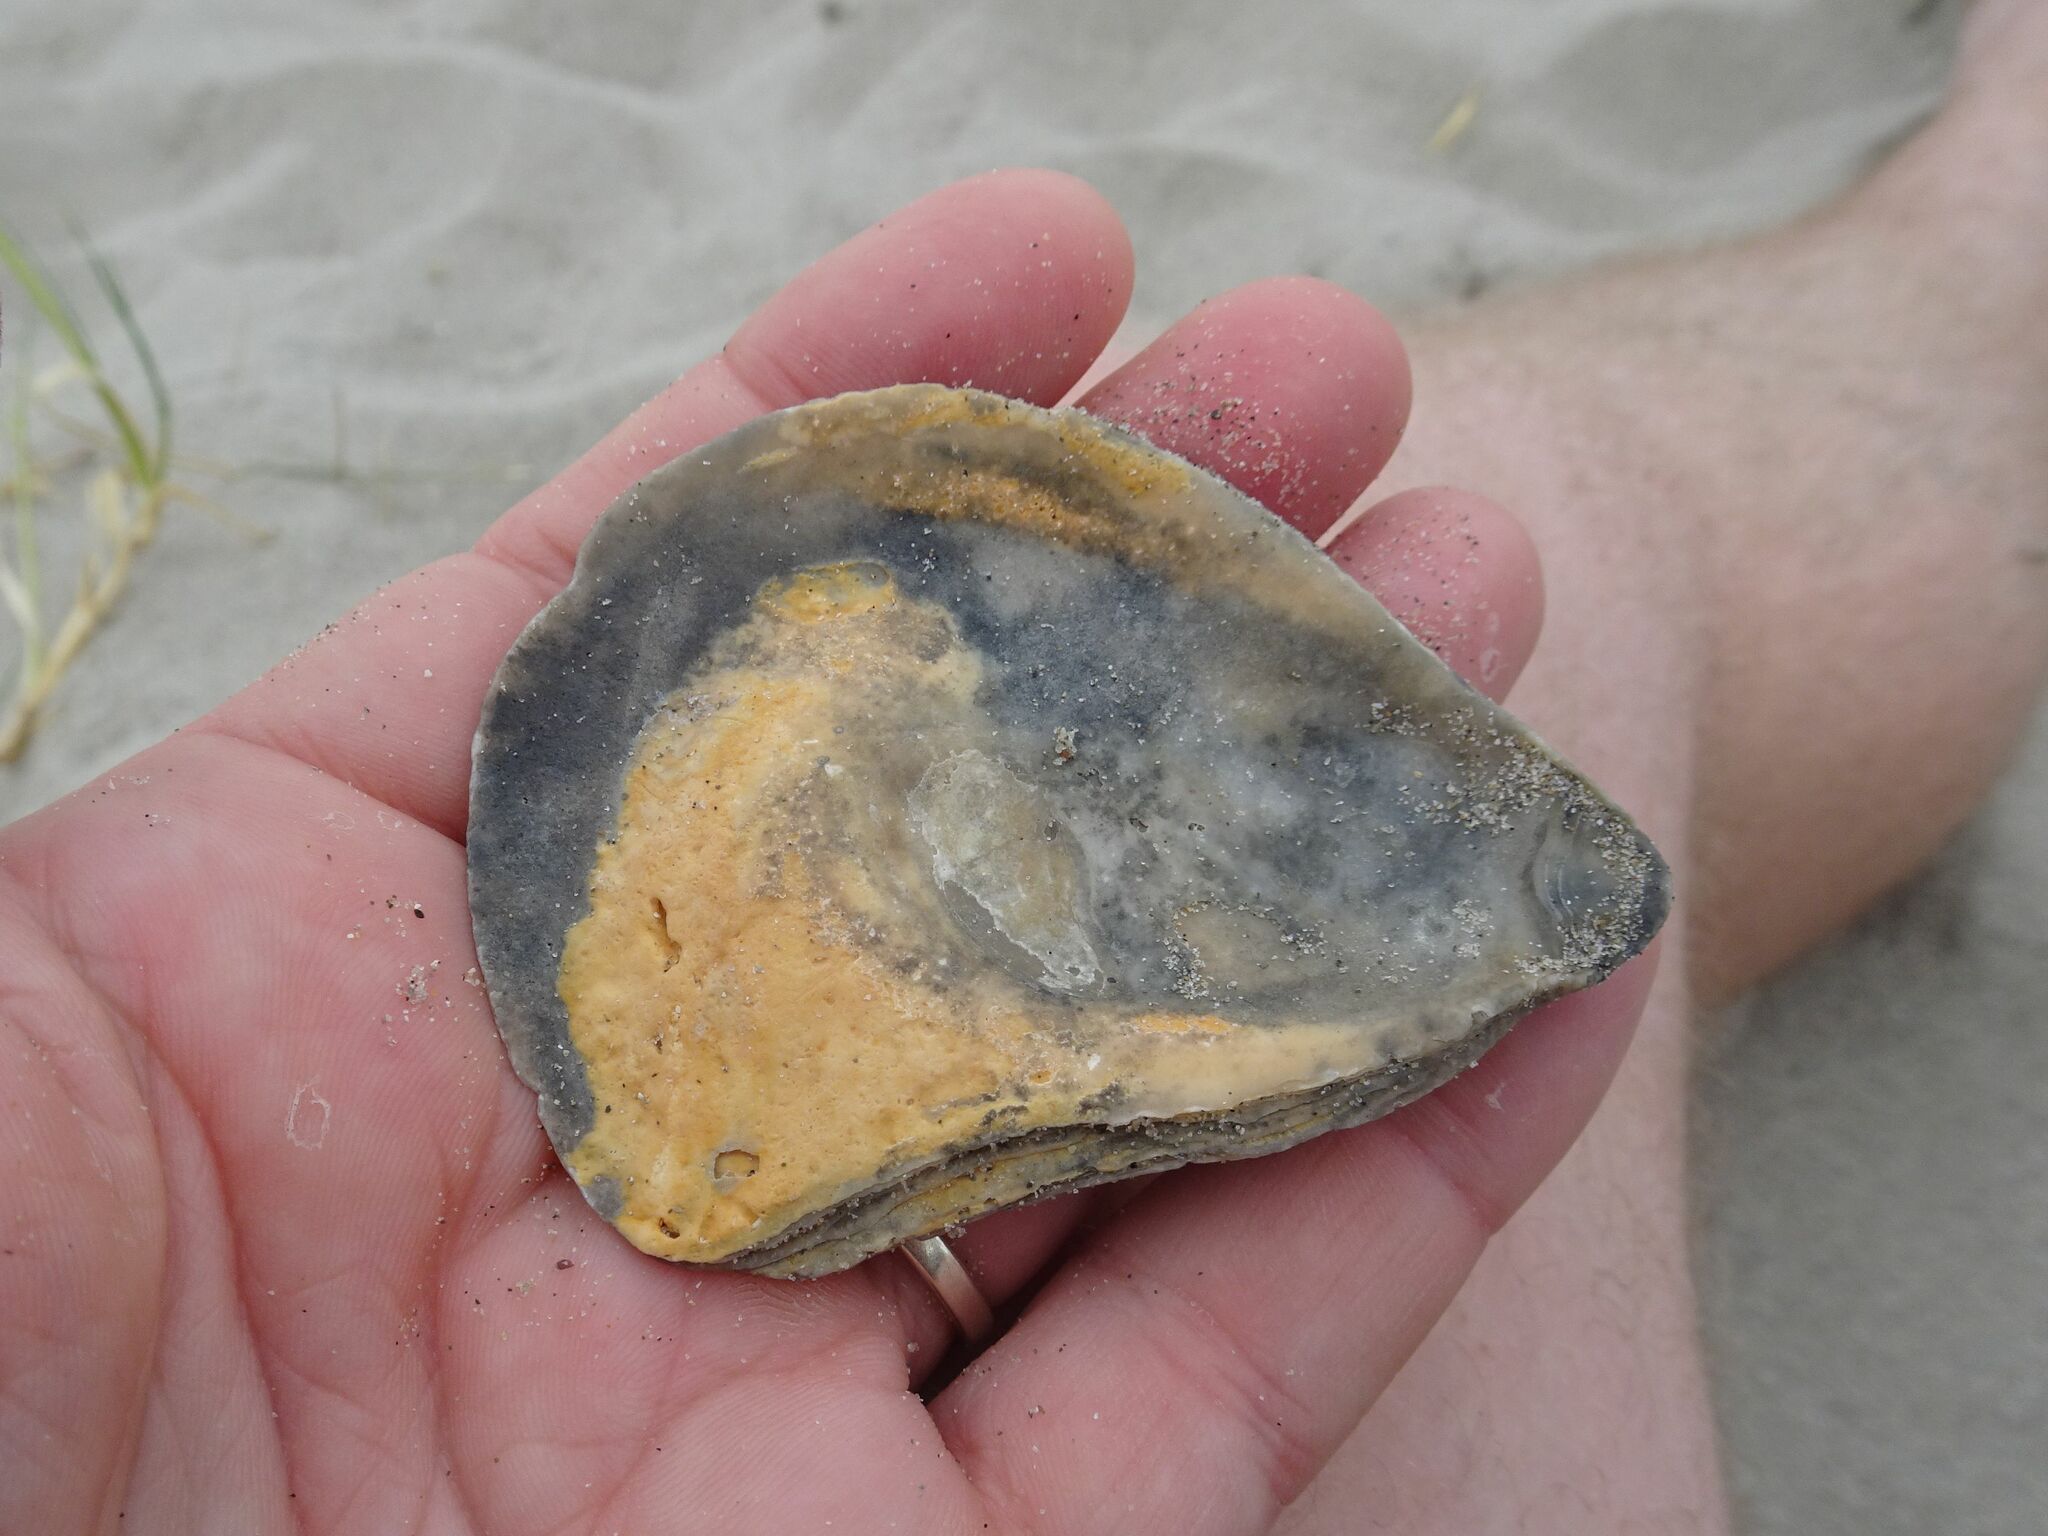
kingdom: Animalia
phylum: Mollusca
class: Bivalvia
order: Ostreida
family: Ostreidae
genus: Ostrea
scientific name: Ostrea edulis
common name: Flat oyster
